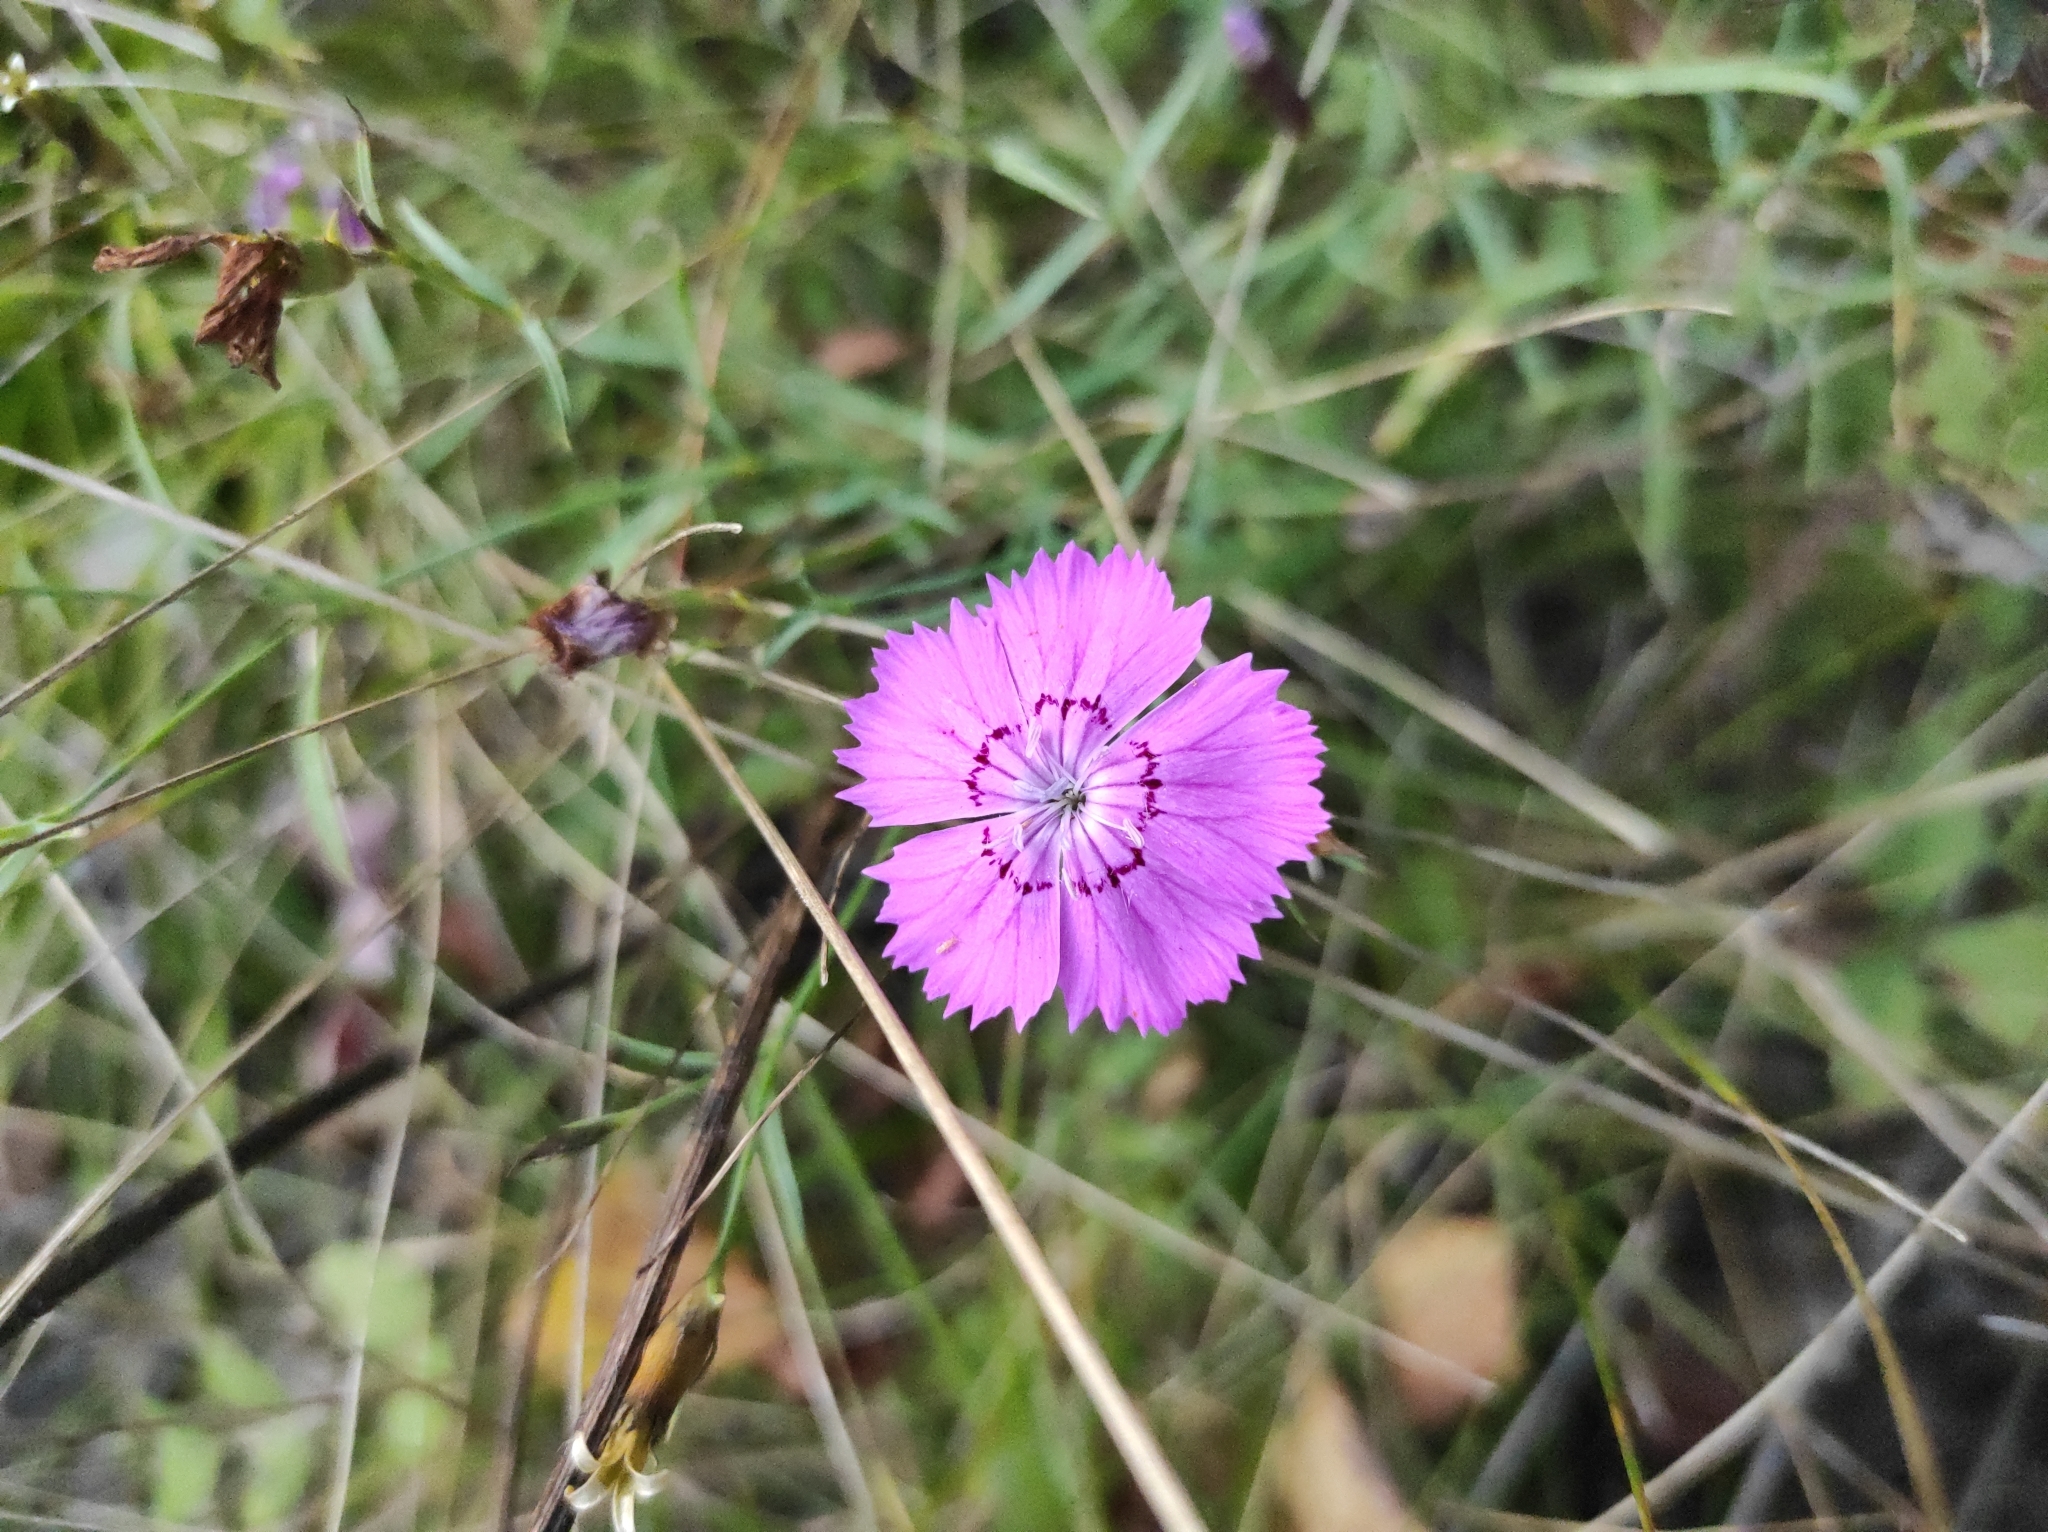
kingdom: Plantae
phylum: Tracheophyta
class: Magnoliopsida
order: Caryophyllales
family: Caryophyllaceae
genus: Dianthus
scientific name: Dianthus chinensis
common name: Rainbow pink
